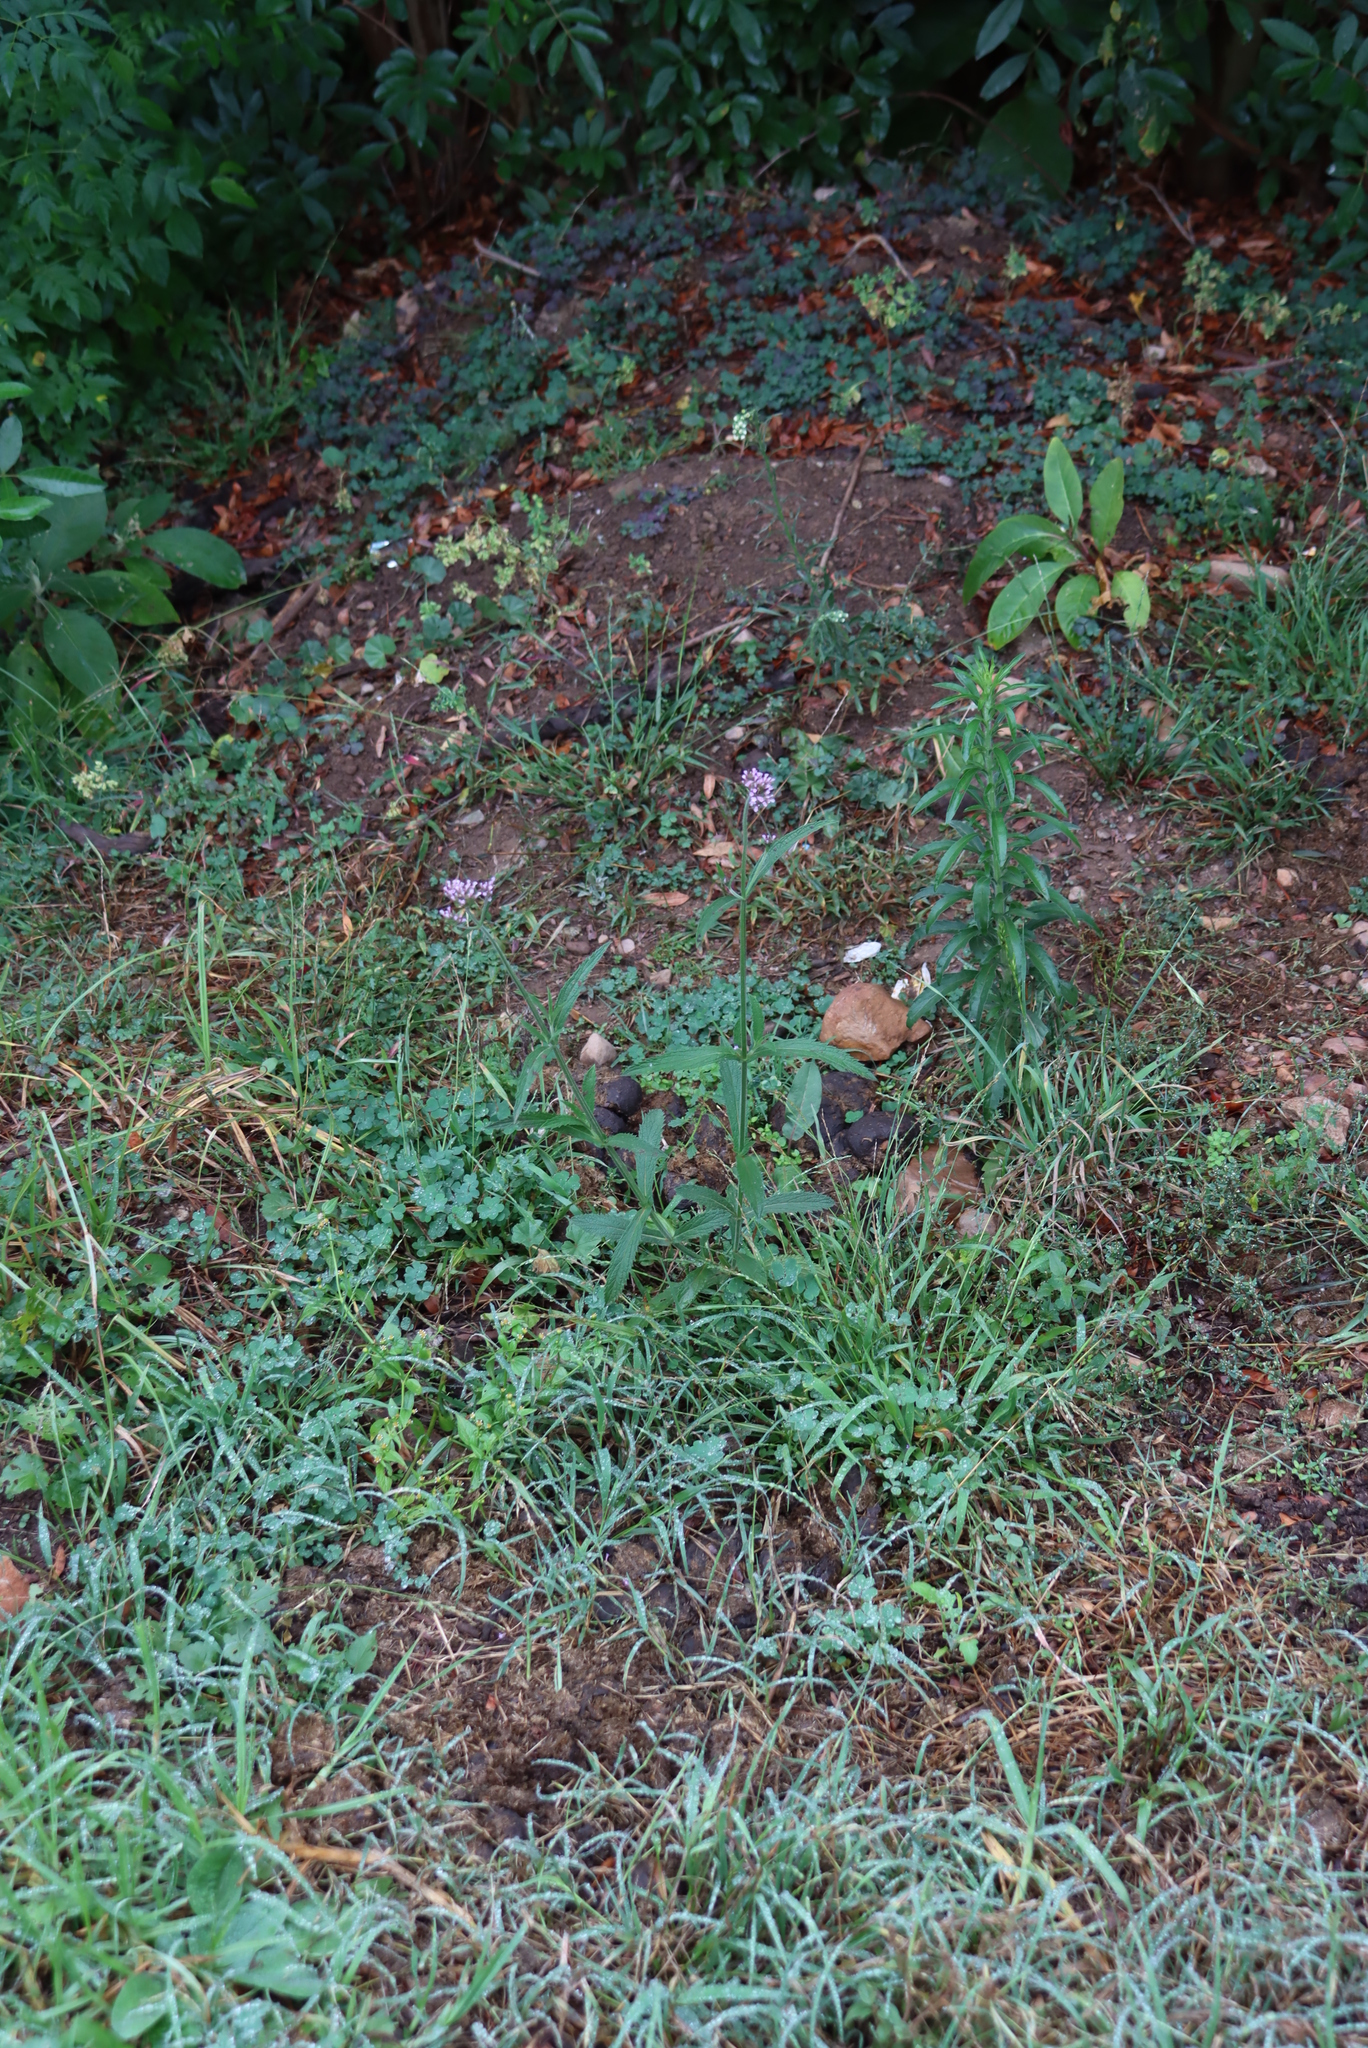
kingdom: Plantae
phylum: Tracheophyta
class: Magnoliopsida
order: Lamiales
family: Verbenaceae
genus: Verbena
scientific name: Verbena bonariensis
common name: Purpletop vervain
